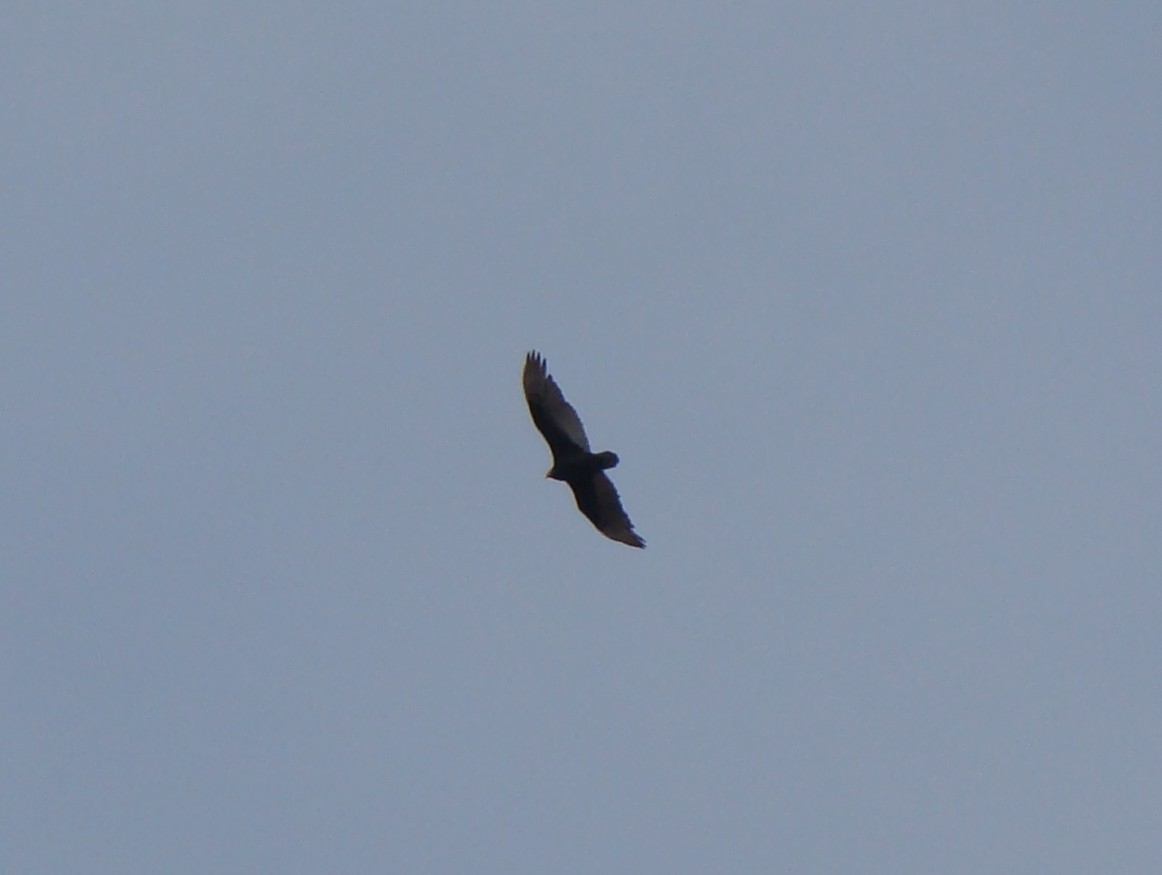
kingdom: Animalia
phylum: Chordata
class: Aves
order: Accipitriformes
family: Cathartidae
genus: Cathartes
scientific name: Cathartes aura
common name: Turkey vulture
